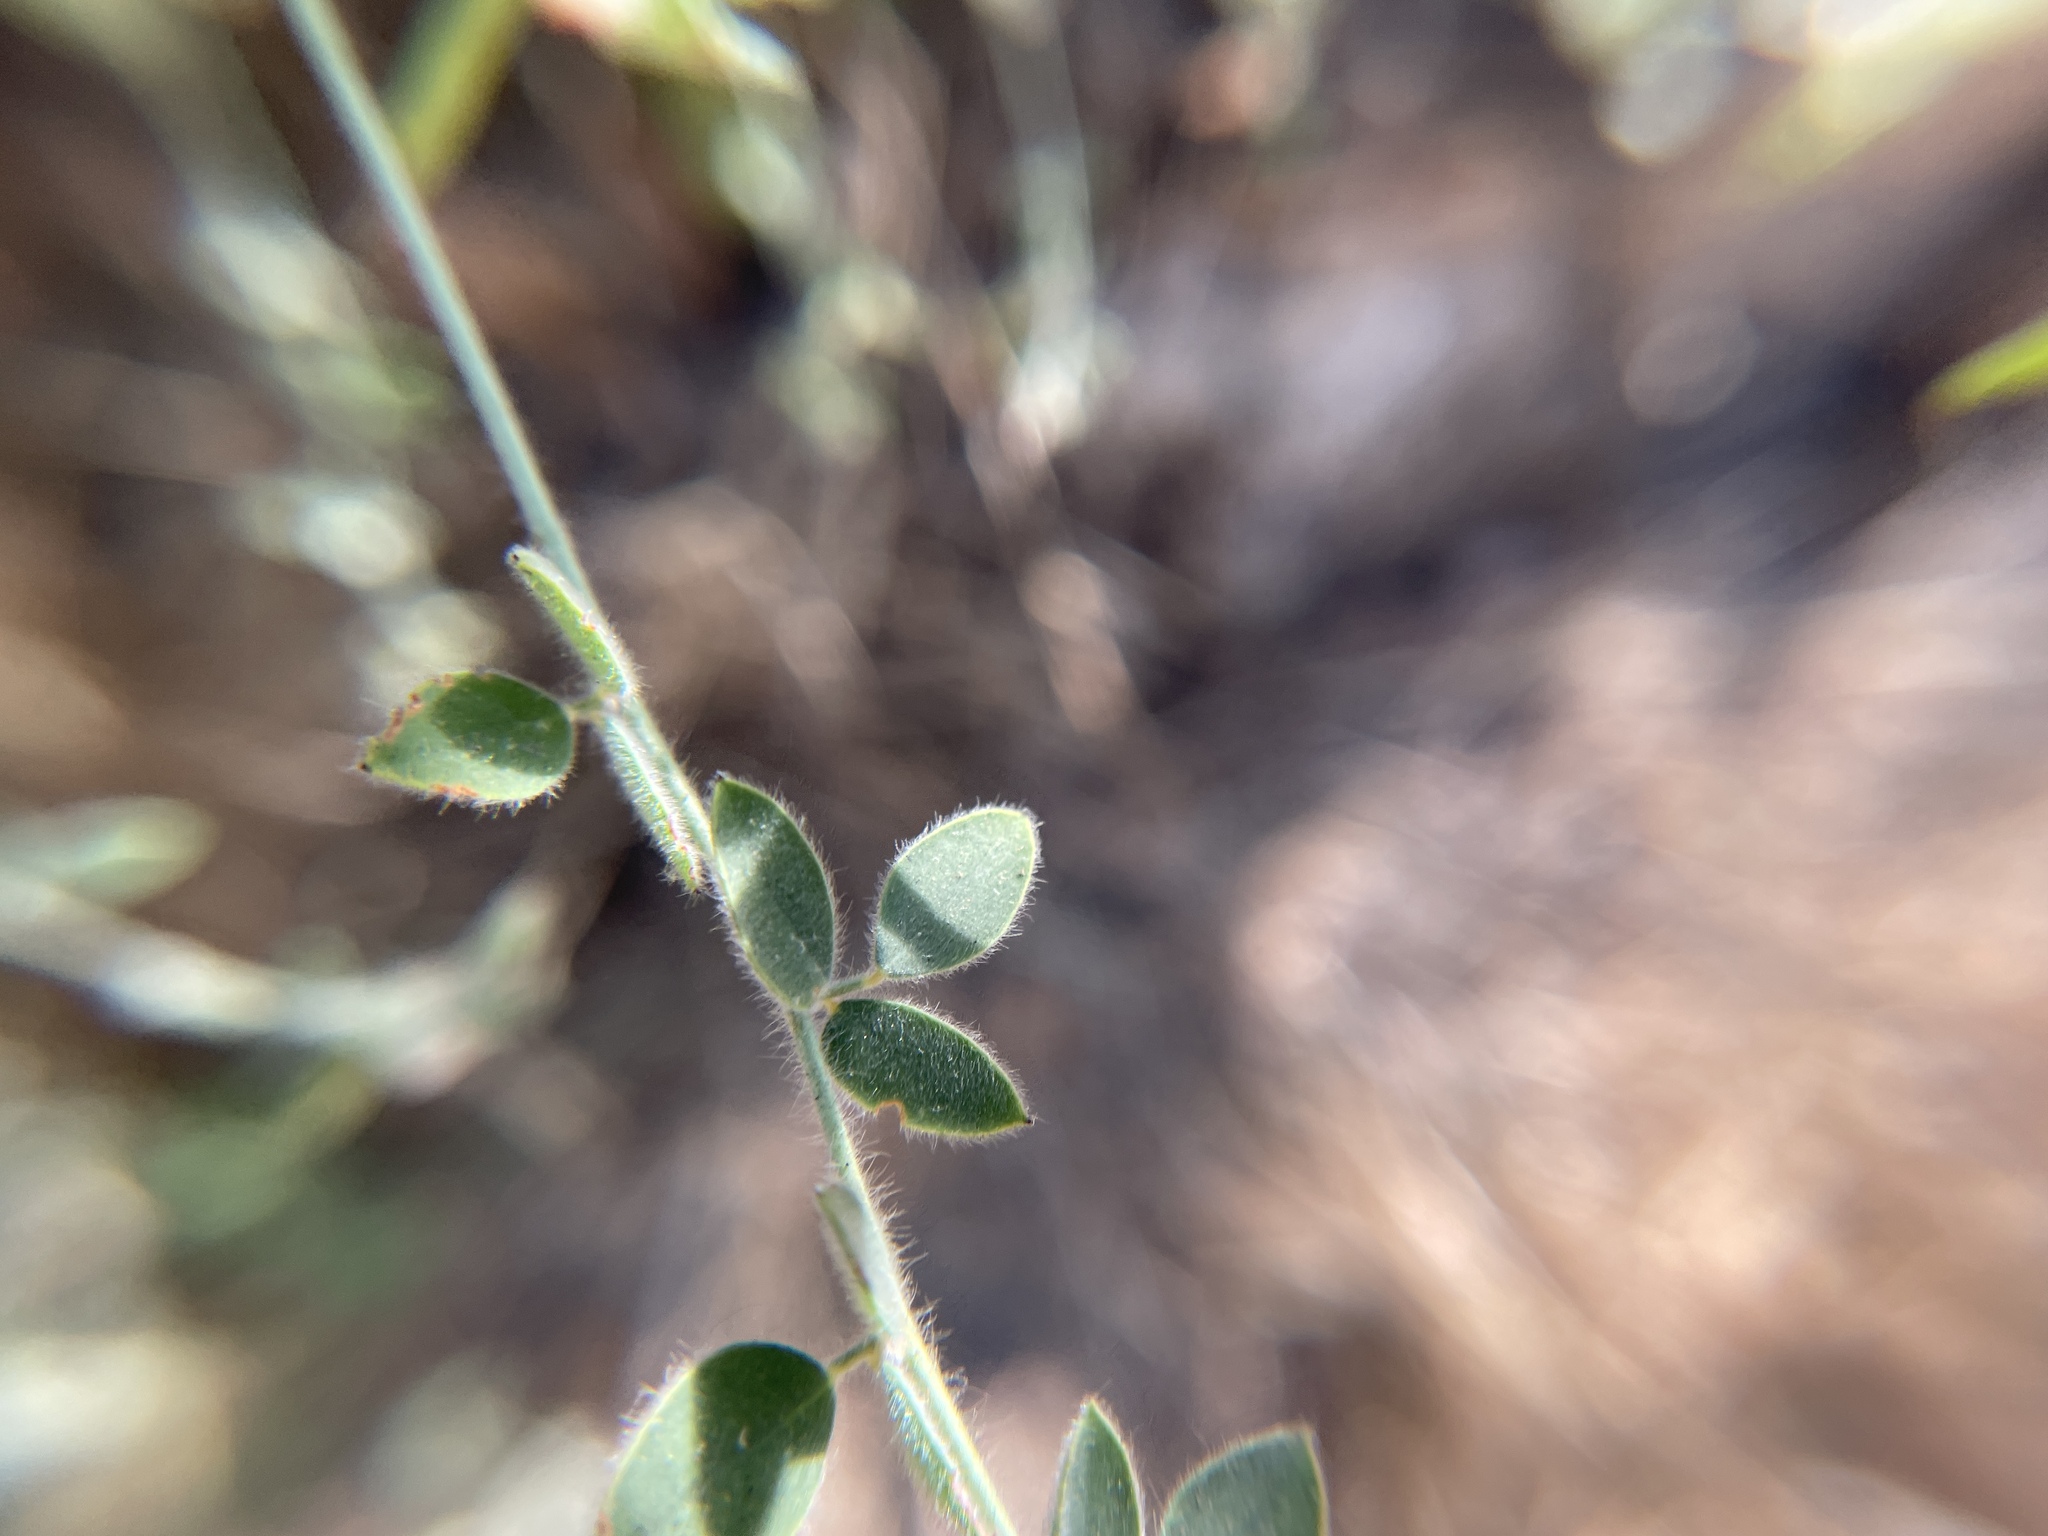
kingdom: Plantae
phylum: Tracheophyta
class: Magnoliopsida
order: Fabales
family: Fabaceae
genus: Acmispon
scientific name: Acmispon americanus
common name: American bird's-foot trefoil
